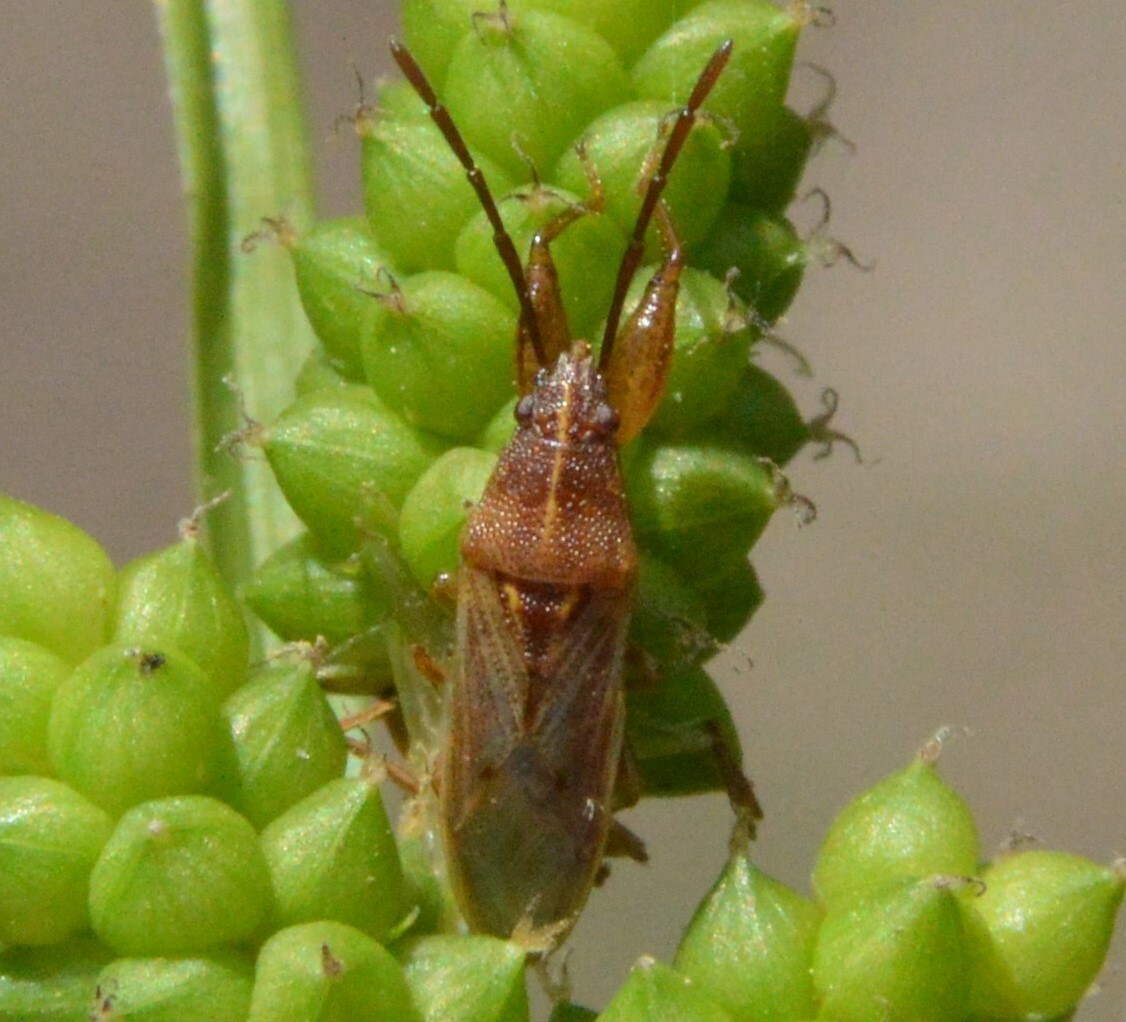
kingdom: Animalia
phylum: Arthropoda
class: Insecta
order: Hemiptera
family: Pachygronthidae
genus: Oedancala
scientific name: Oedancala crassimana
